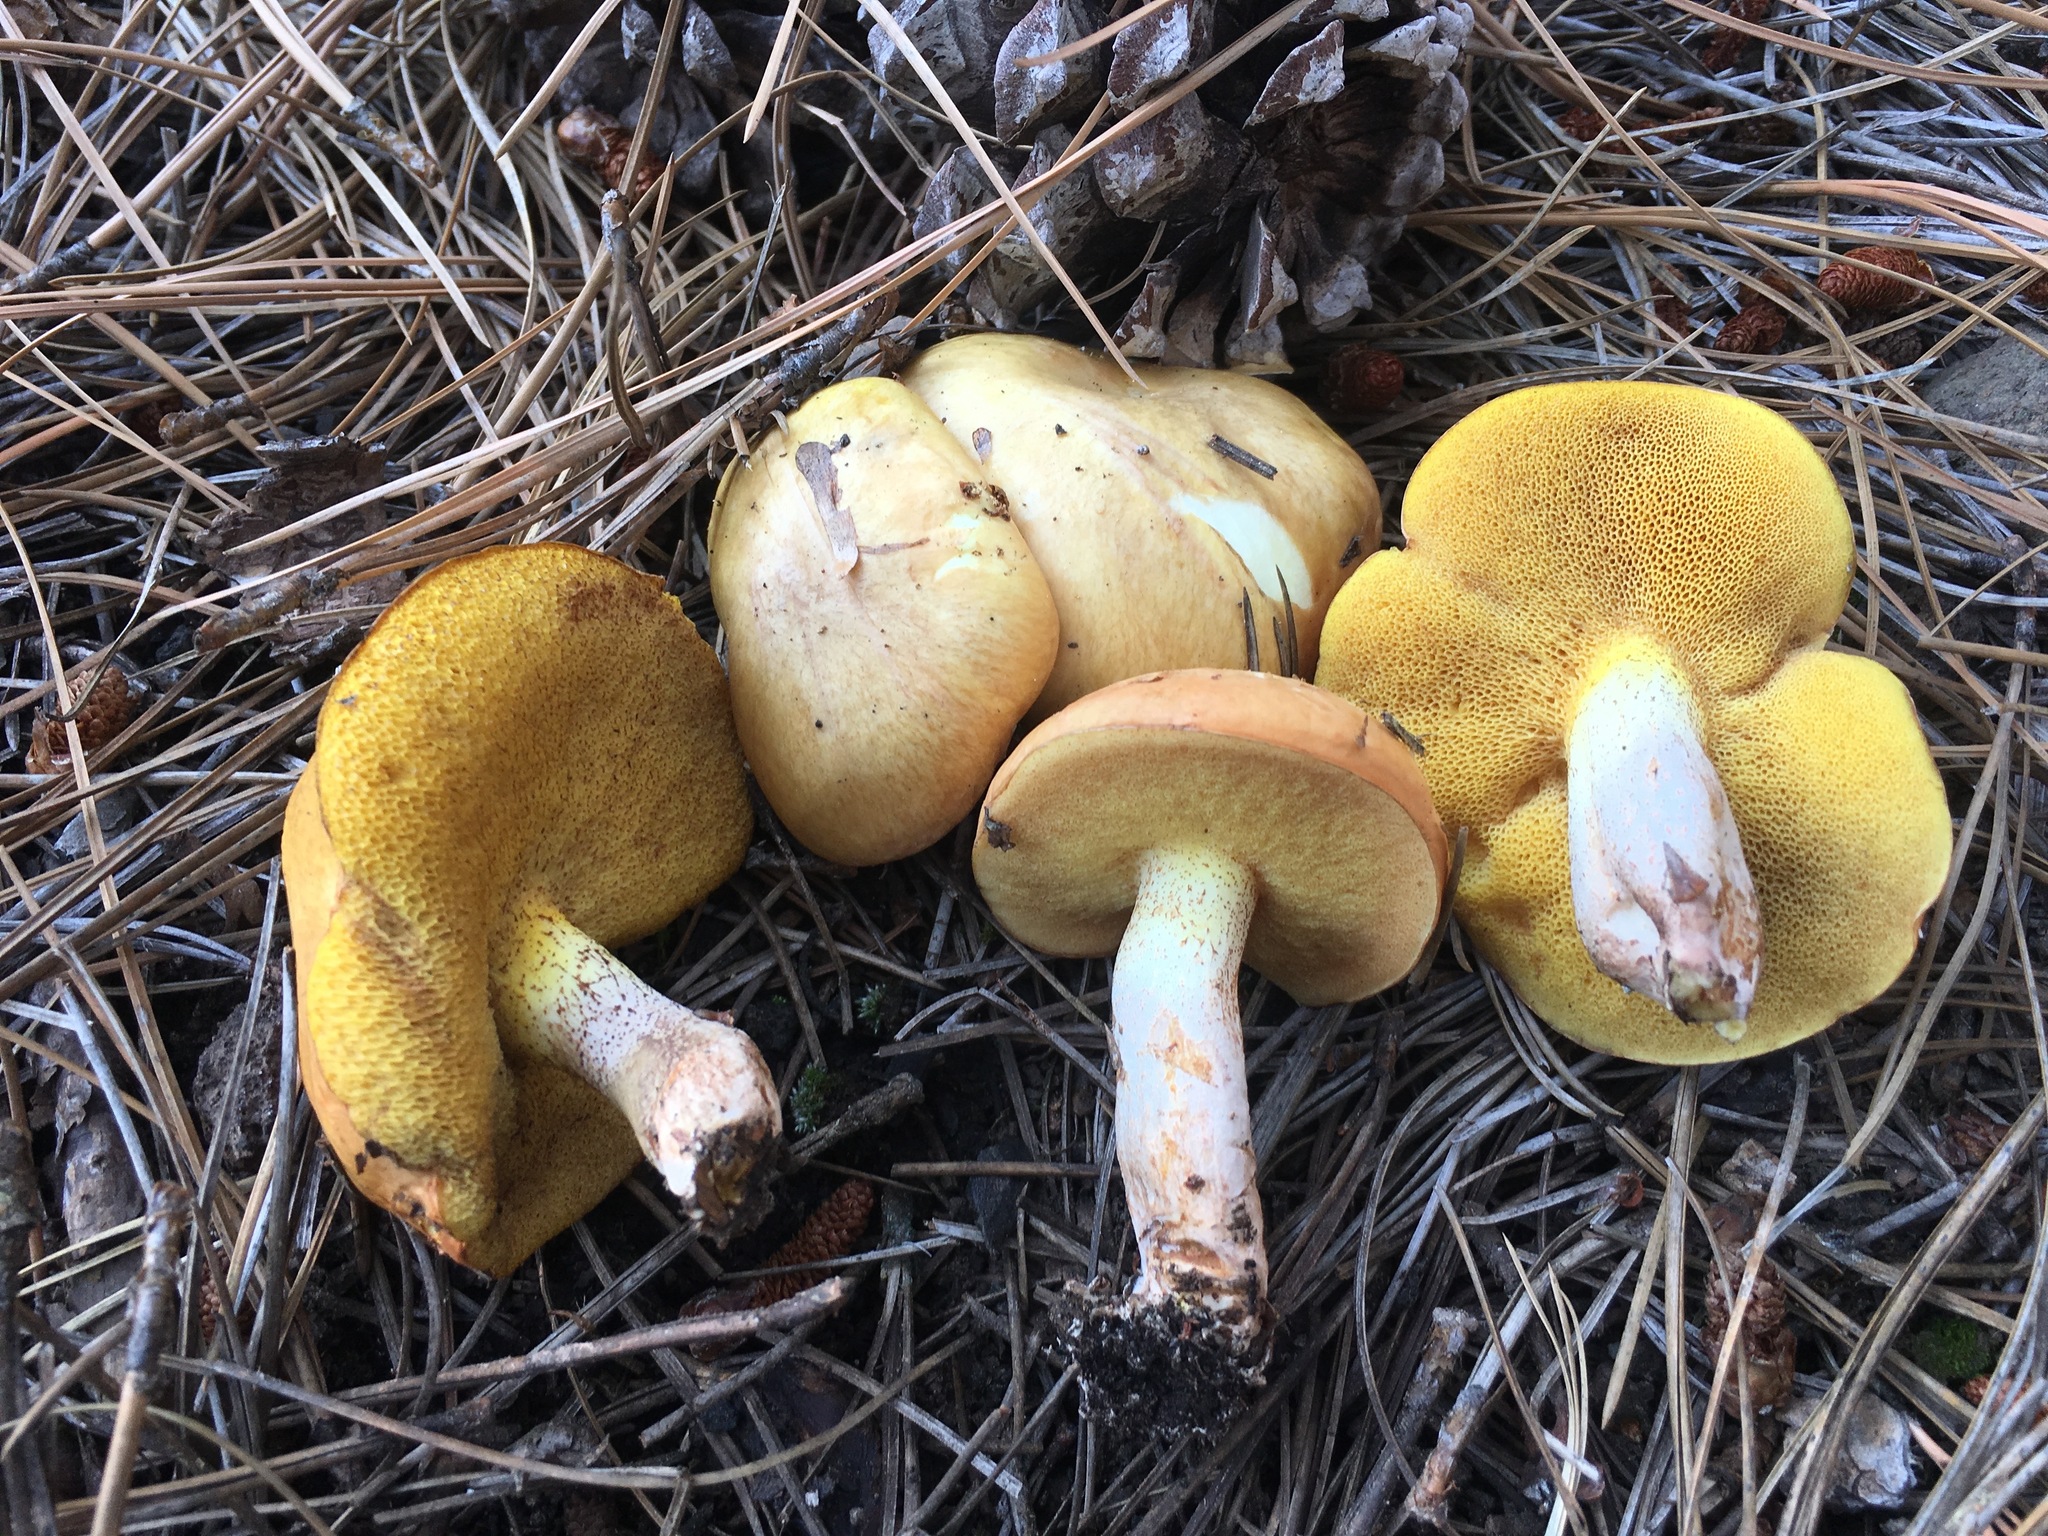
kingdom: Fungi
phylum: Basidiomycota
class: Agaricomycetes
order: Boletales
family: Suillaceae
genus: Suillus
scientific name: Suillus kaibabensis
